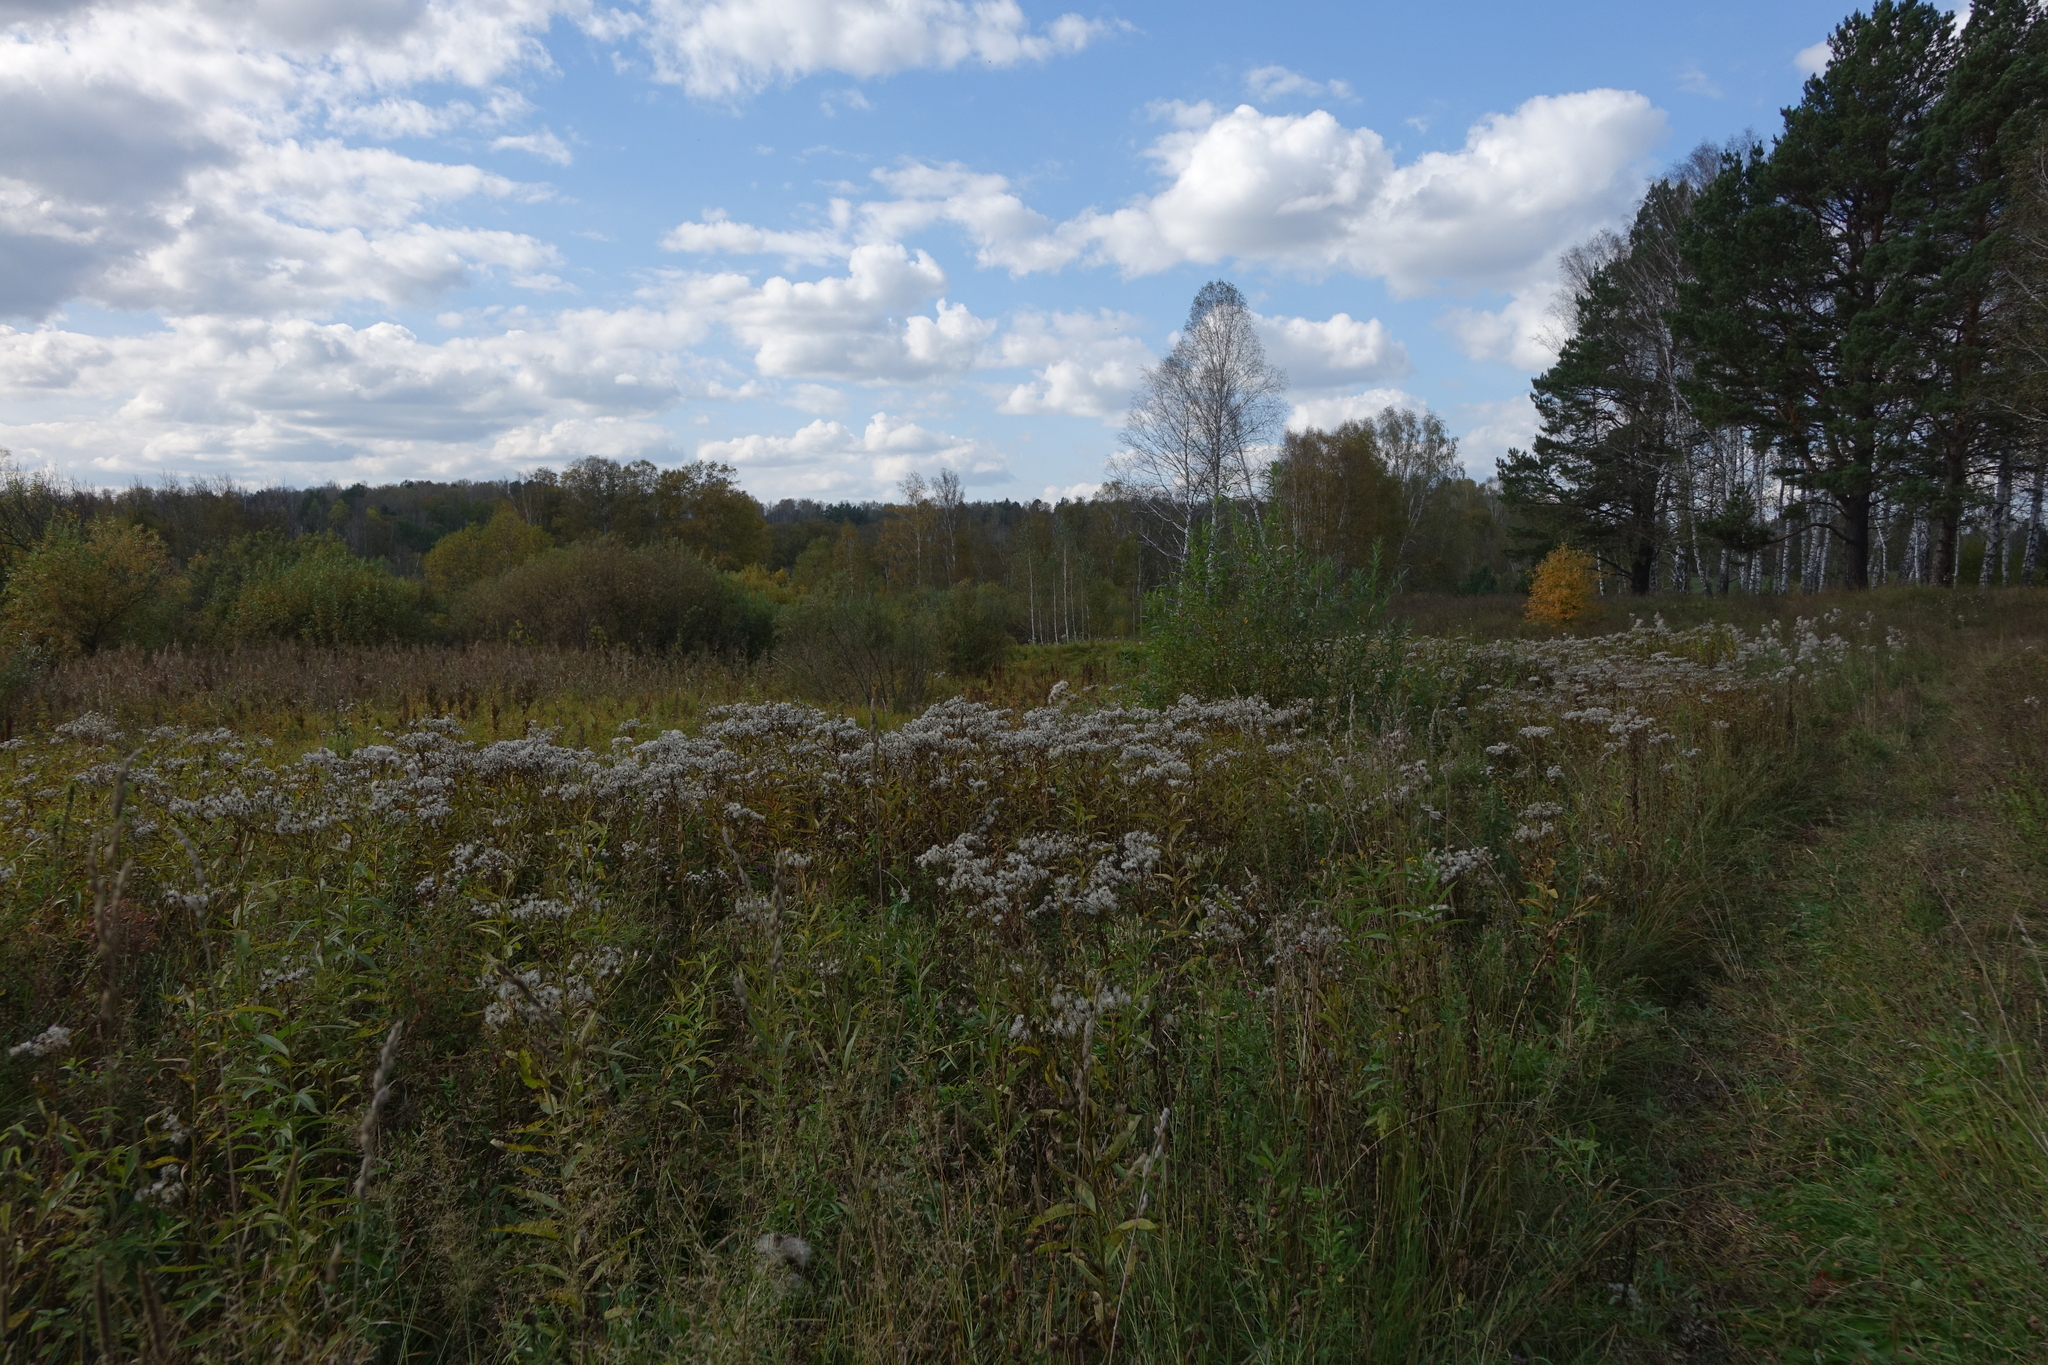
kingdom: Plantae
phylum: Tracheophyta
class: Magnoliopsida
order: Asterales
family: Asteraceae
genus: Senecio
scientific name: Senecio sarracenicus
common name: Broad-leaved ragwort
